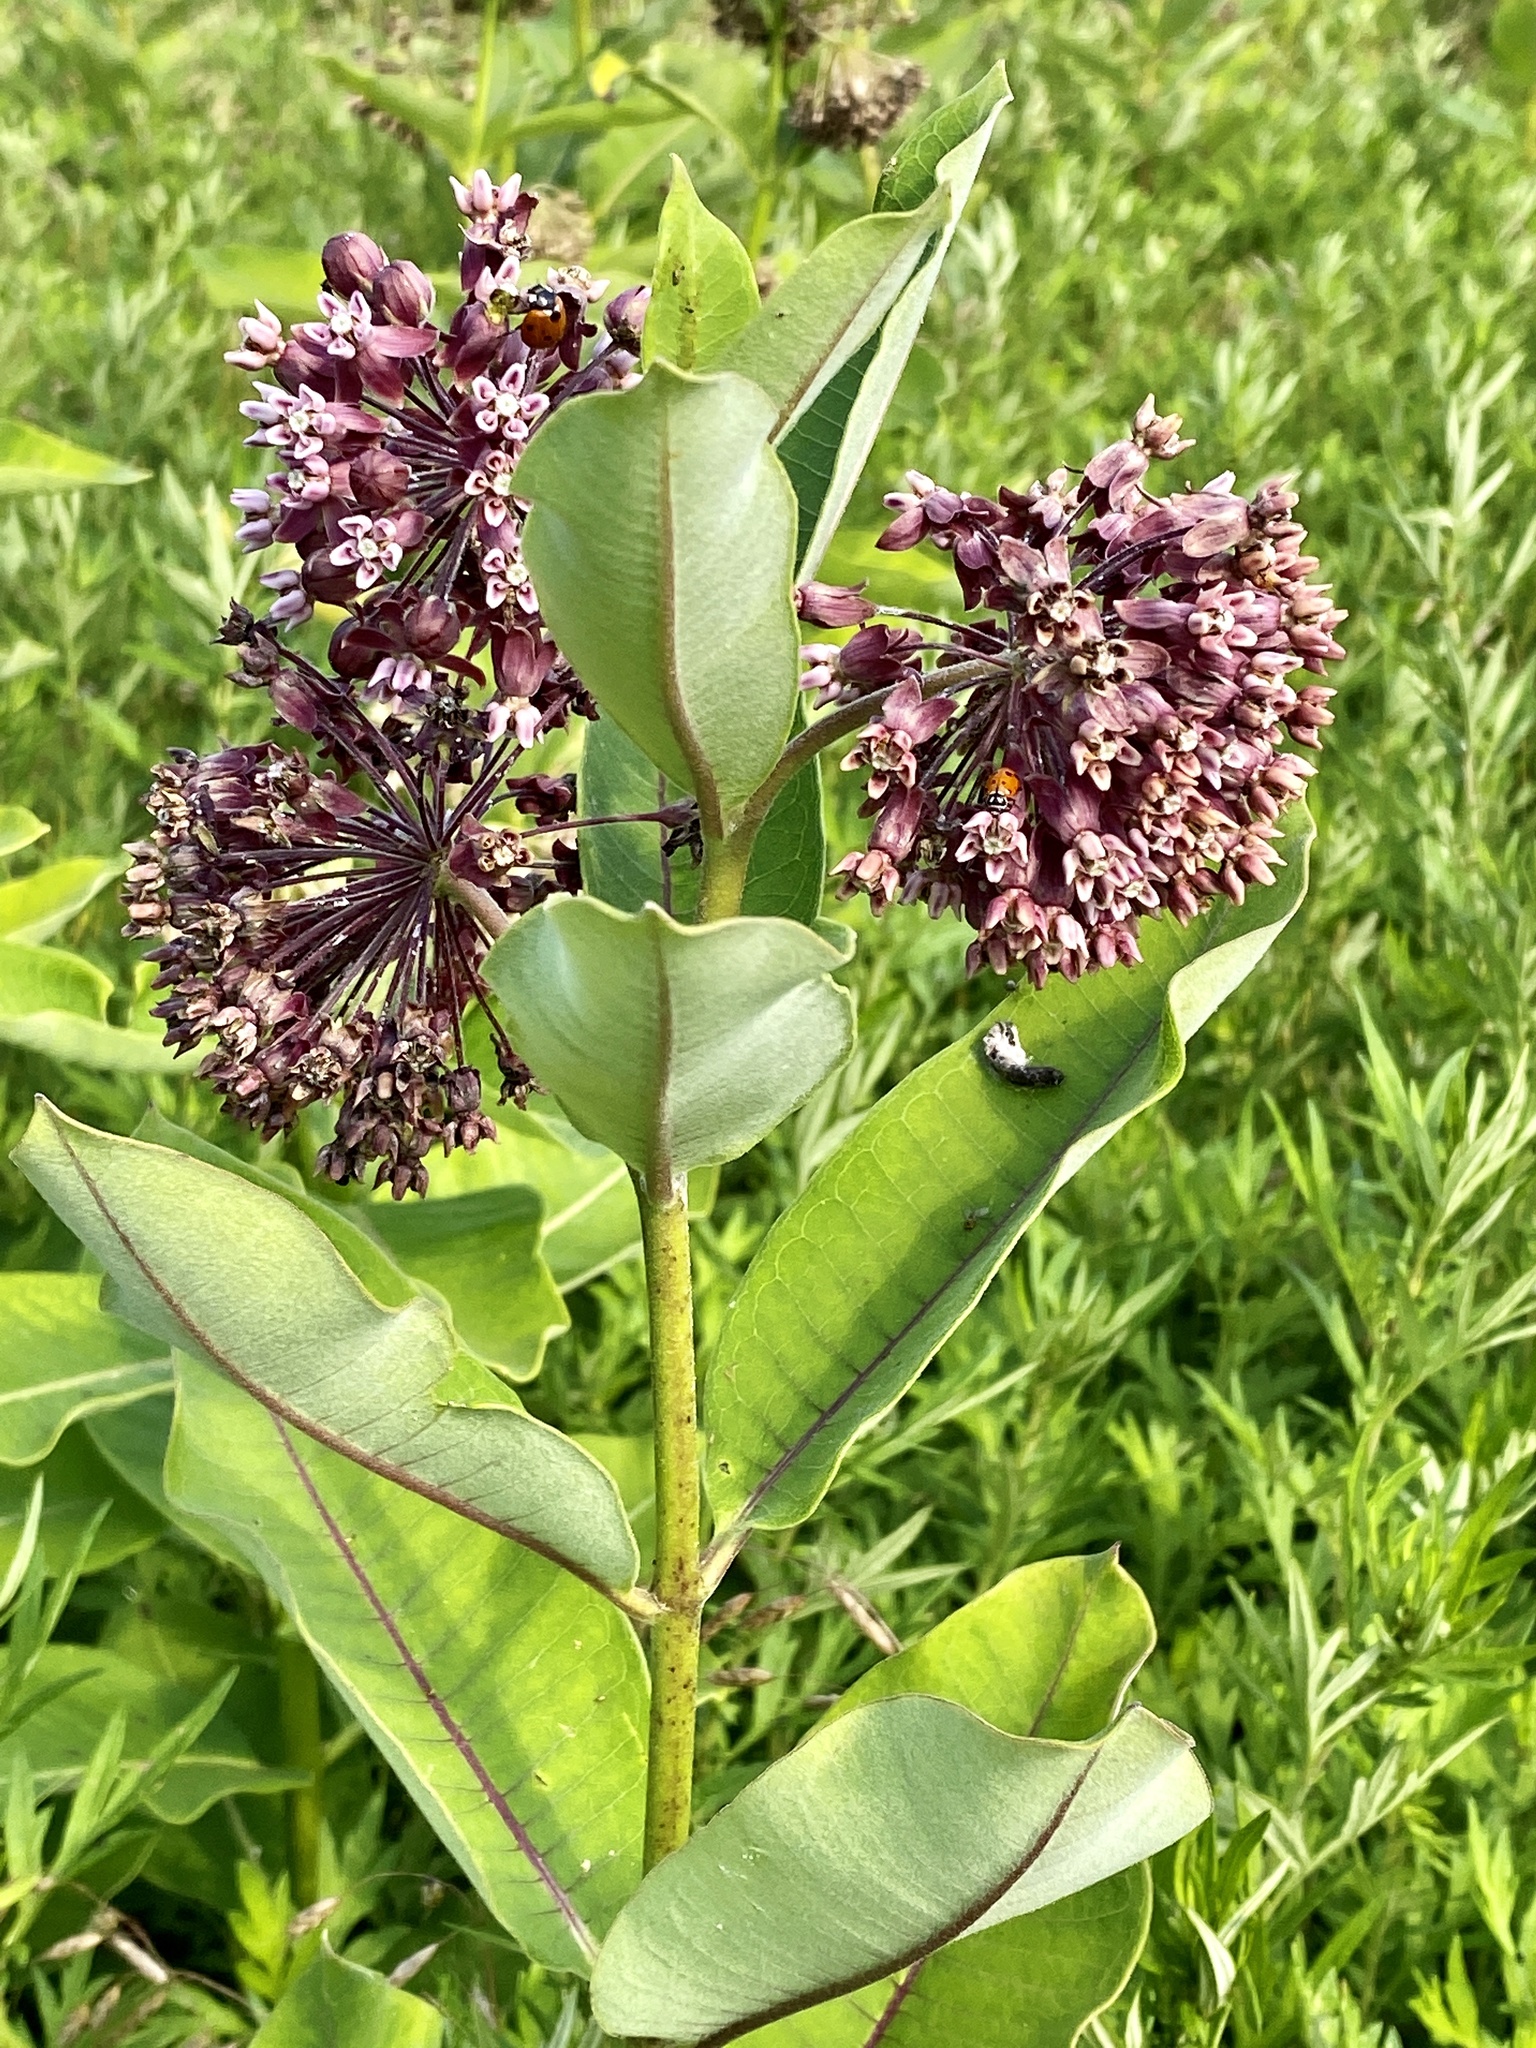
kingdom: Plantae
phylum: Tracheophyta
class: Magnoliopsida
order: Gentianales
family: Apocynaceae
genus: Asclepias
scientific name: Asclepias syriaca
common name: Common milkweed
